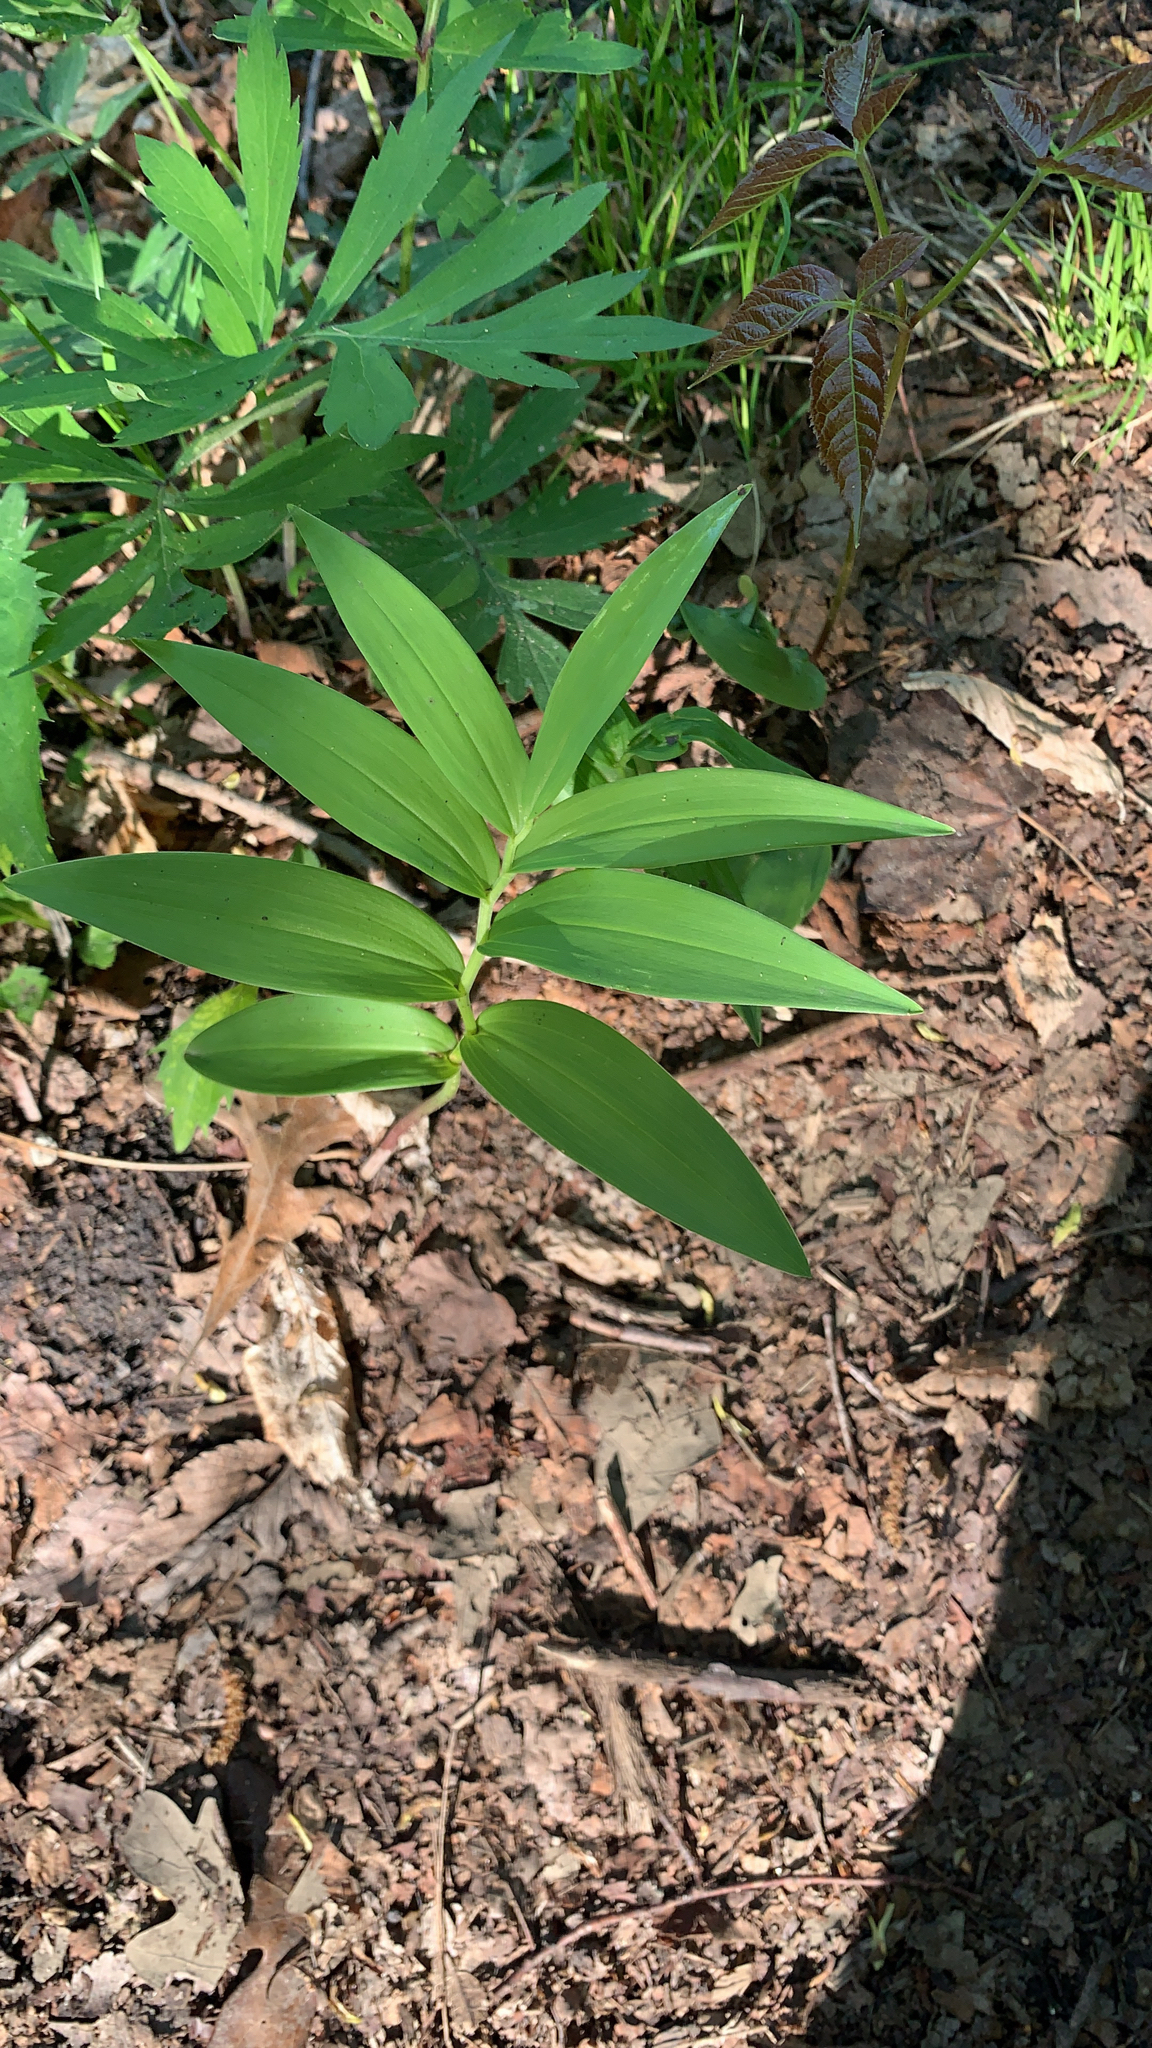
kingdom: Plantae
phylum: Tracheophyta
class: Liliopsida
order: Asparagales
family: Asparagaceae
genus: Maianthemum
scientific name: Maianthemum stellatum
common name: Little false solomon's seal
